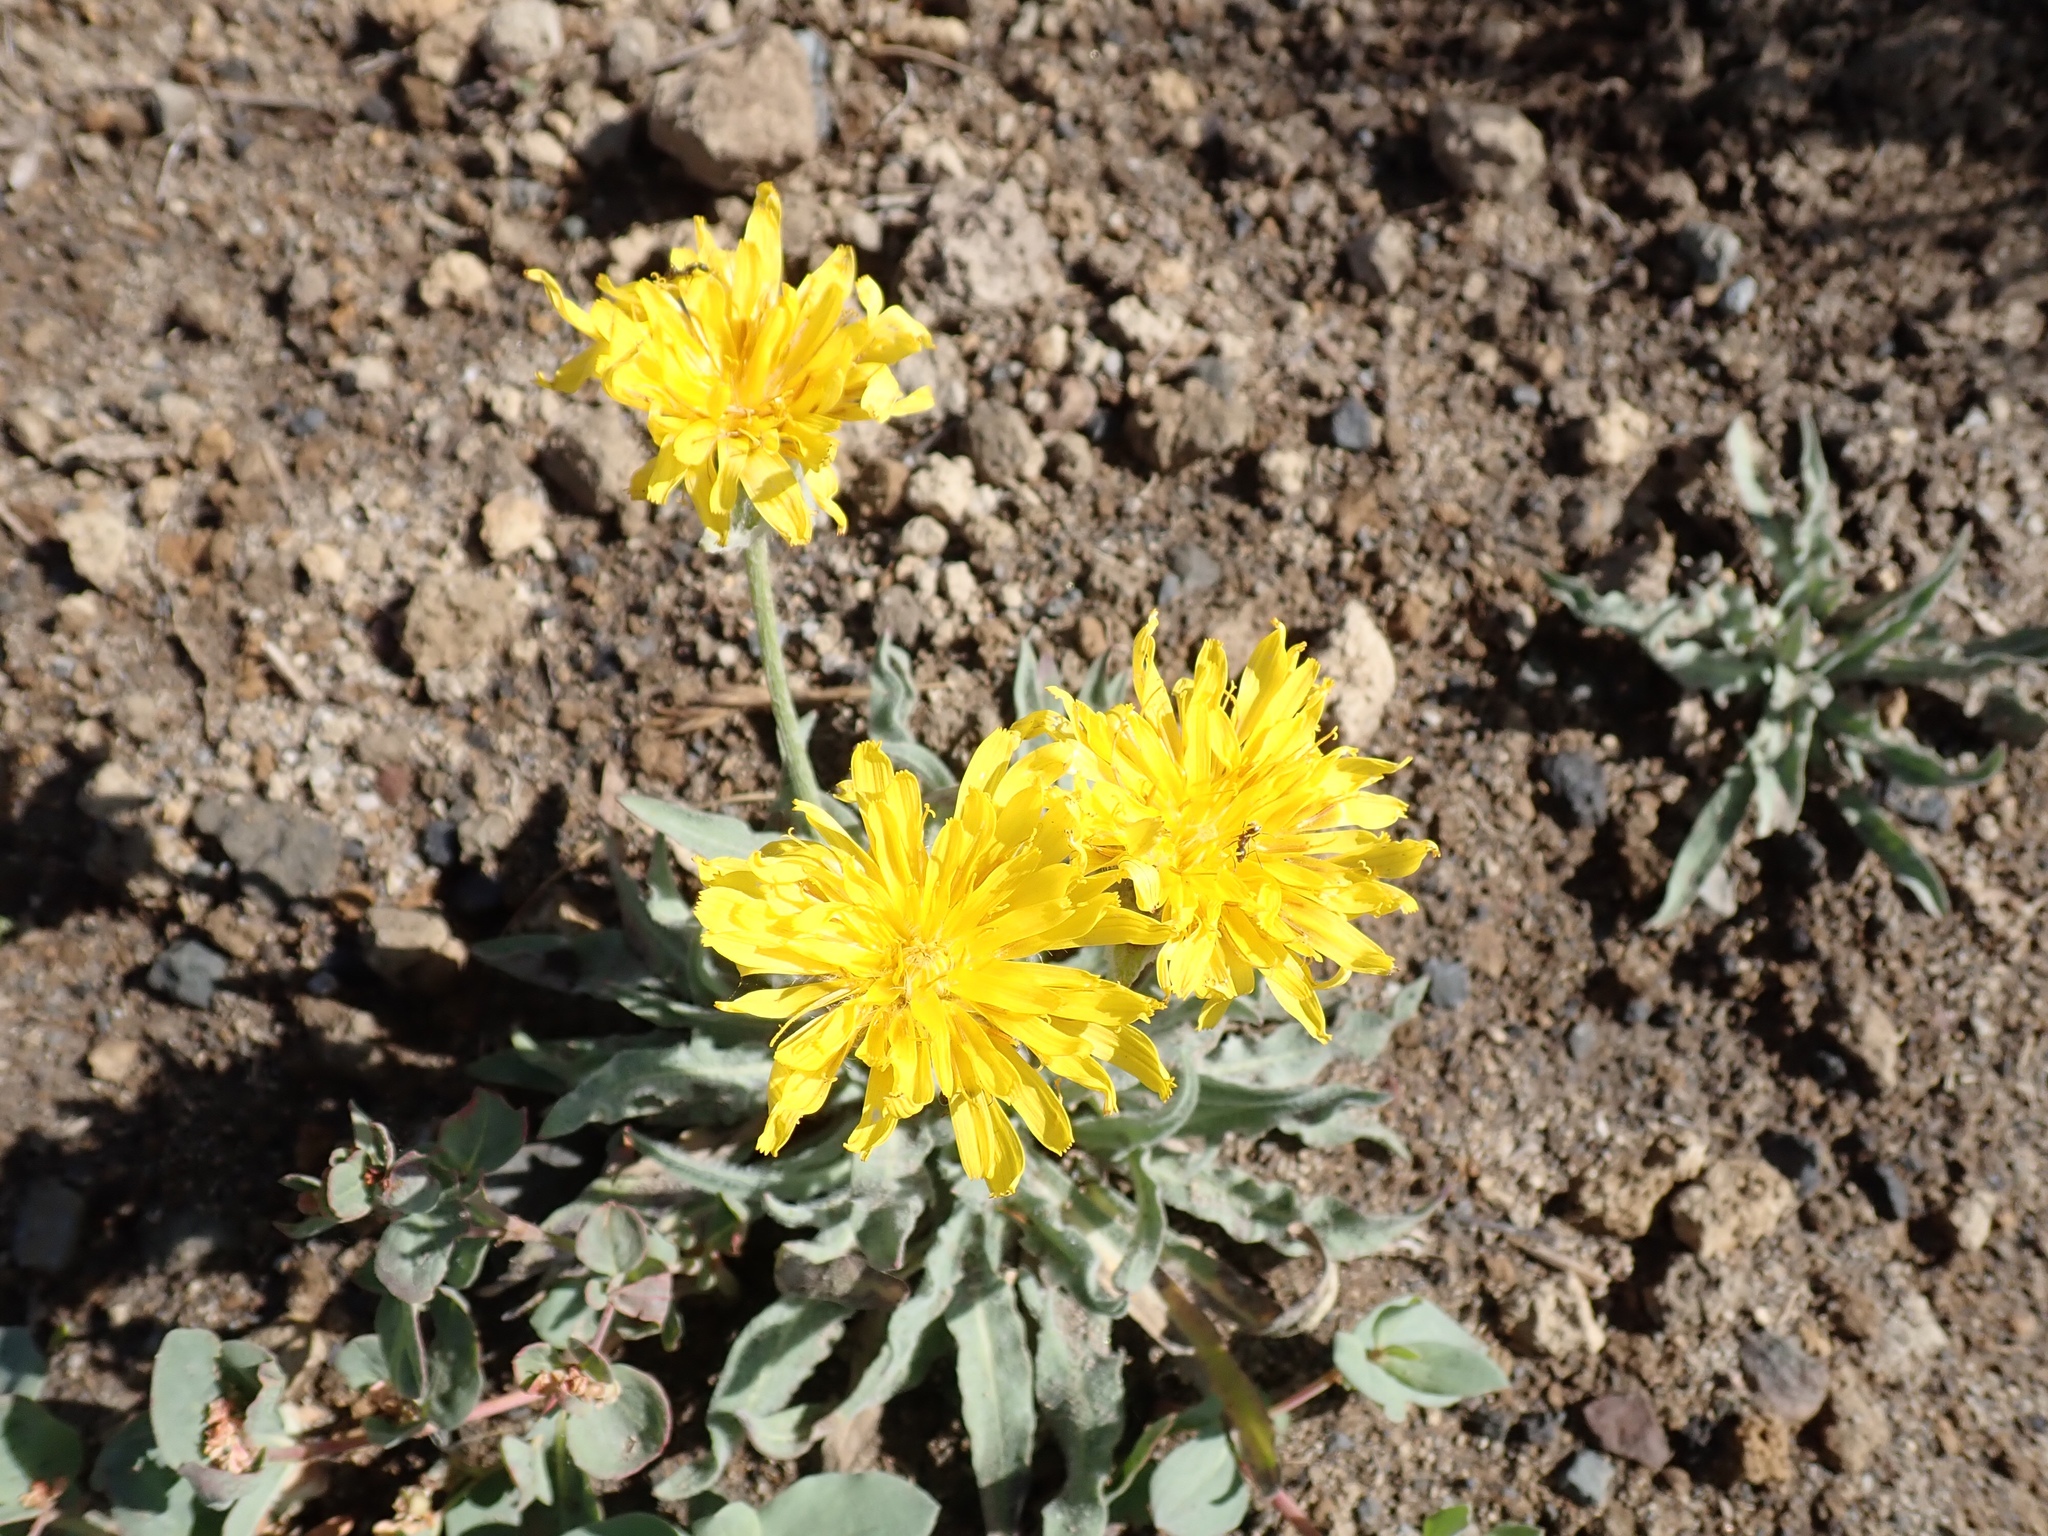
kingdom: Plantae
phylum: Tracheophyta
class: Magnoliopsida
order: Asterales
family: Asteraceae
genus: Agoseris
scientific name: Agoseris glauca
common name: Prairie agoseris
